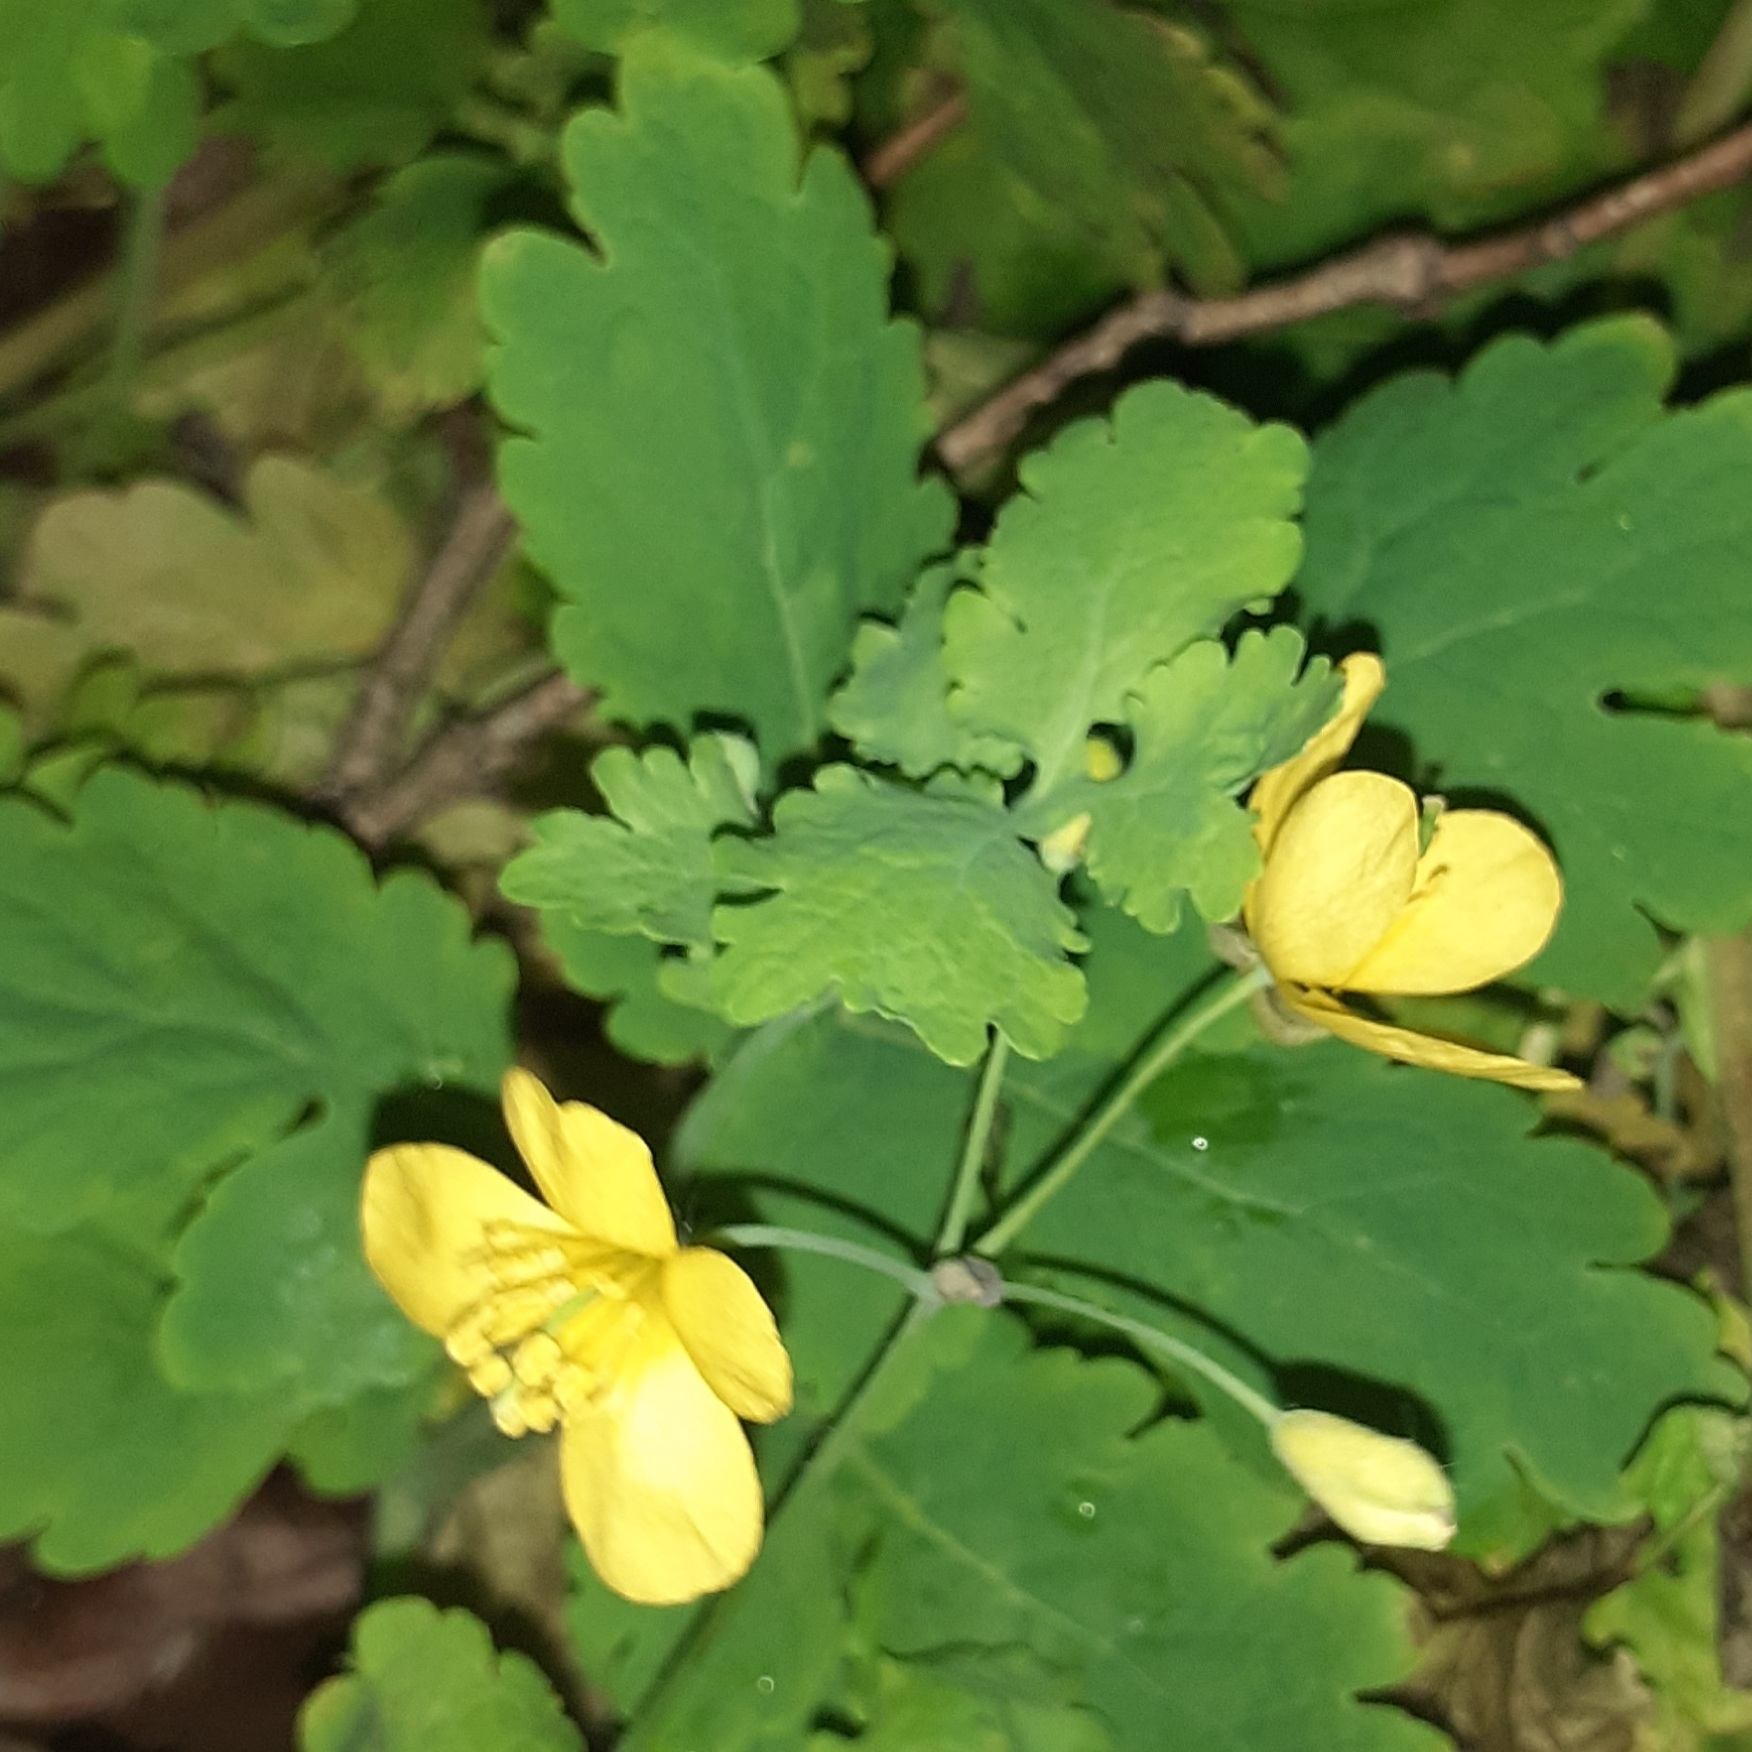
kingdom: Plantae
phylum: Tracheophyta
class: Magnoliopsida
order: Ranunculales
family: Papaveraceae
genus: Chelidonium
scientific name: Chelidonium majus
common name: Greater celandine
